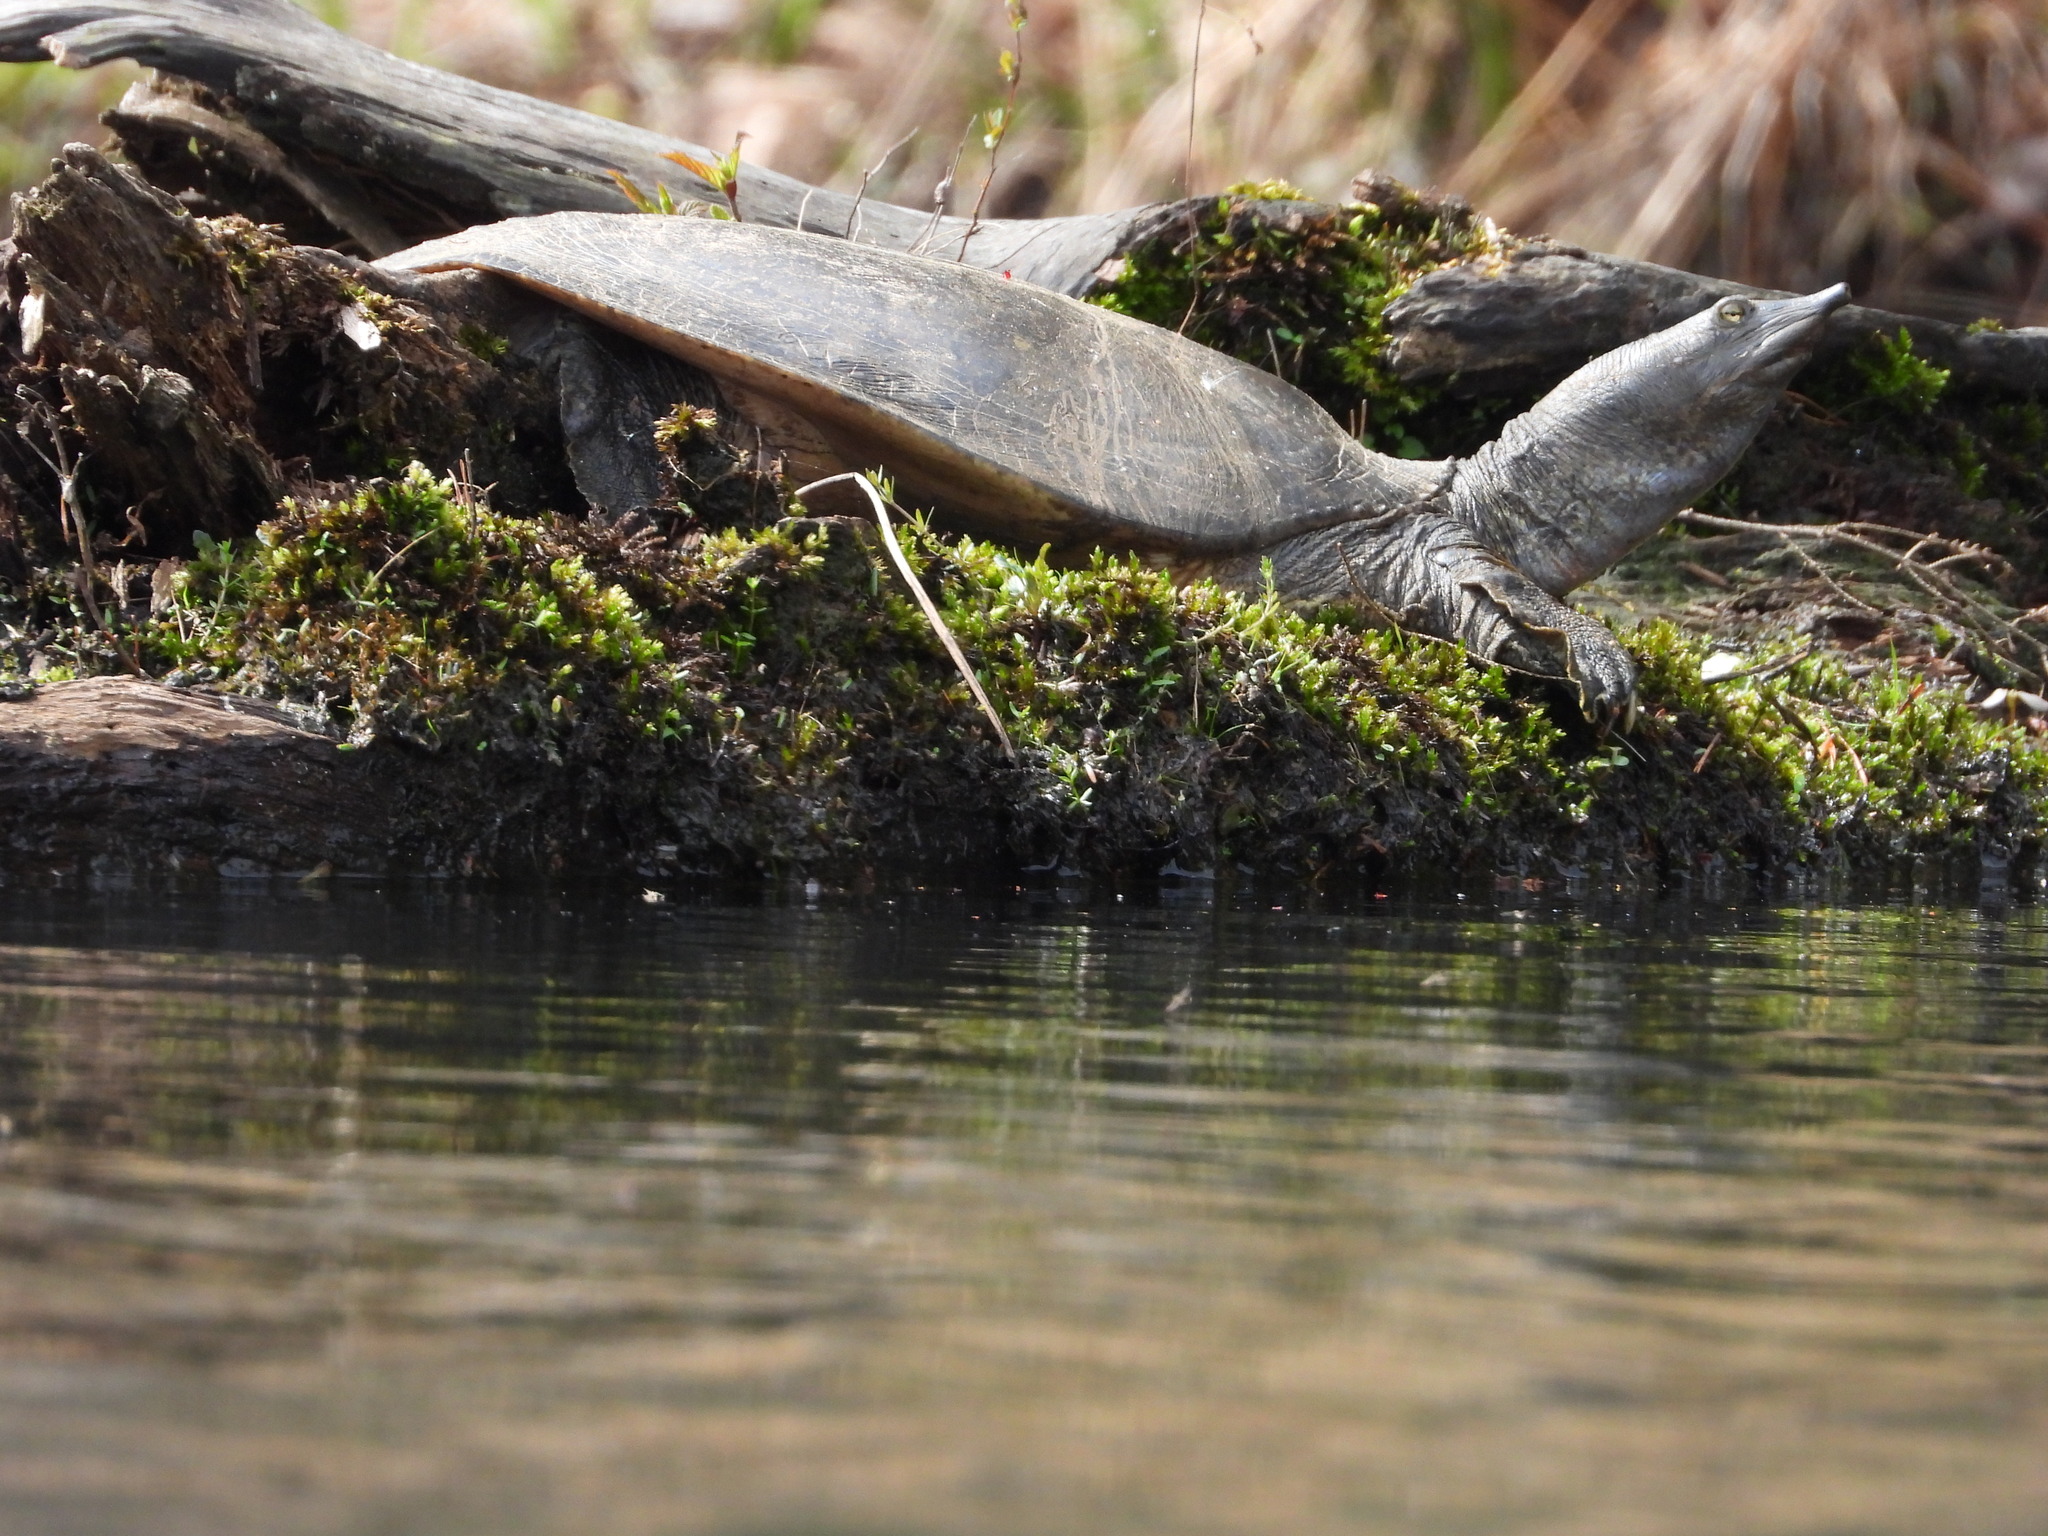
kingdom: Animalia
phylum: Chordata
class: Testudines
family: Trionychidae
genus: Apalone
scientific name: Apalone spinifera
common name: Spiny softshell turtle
